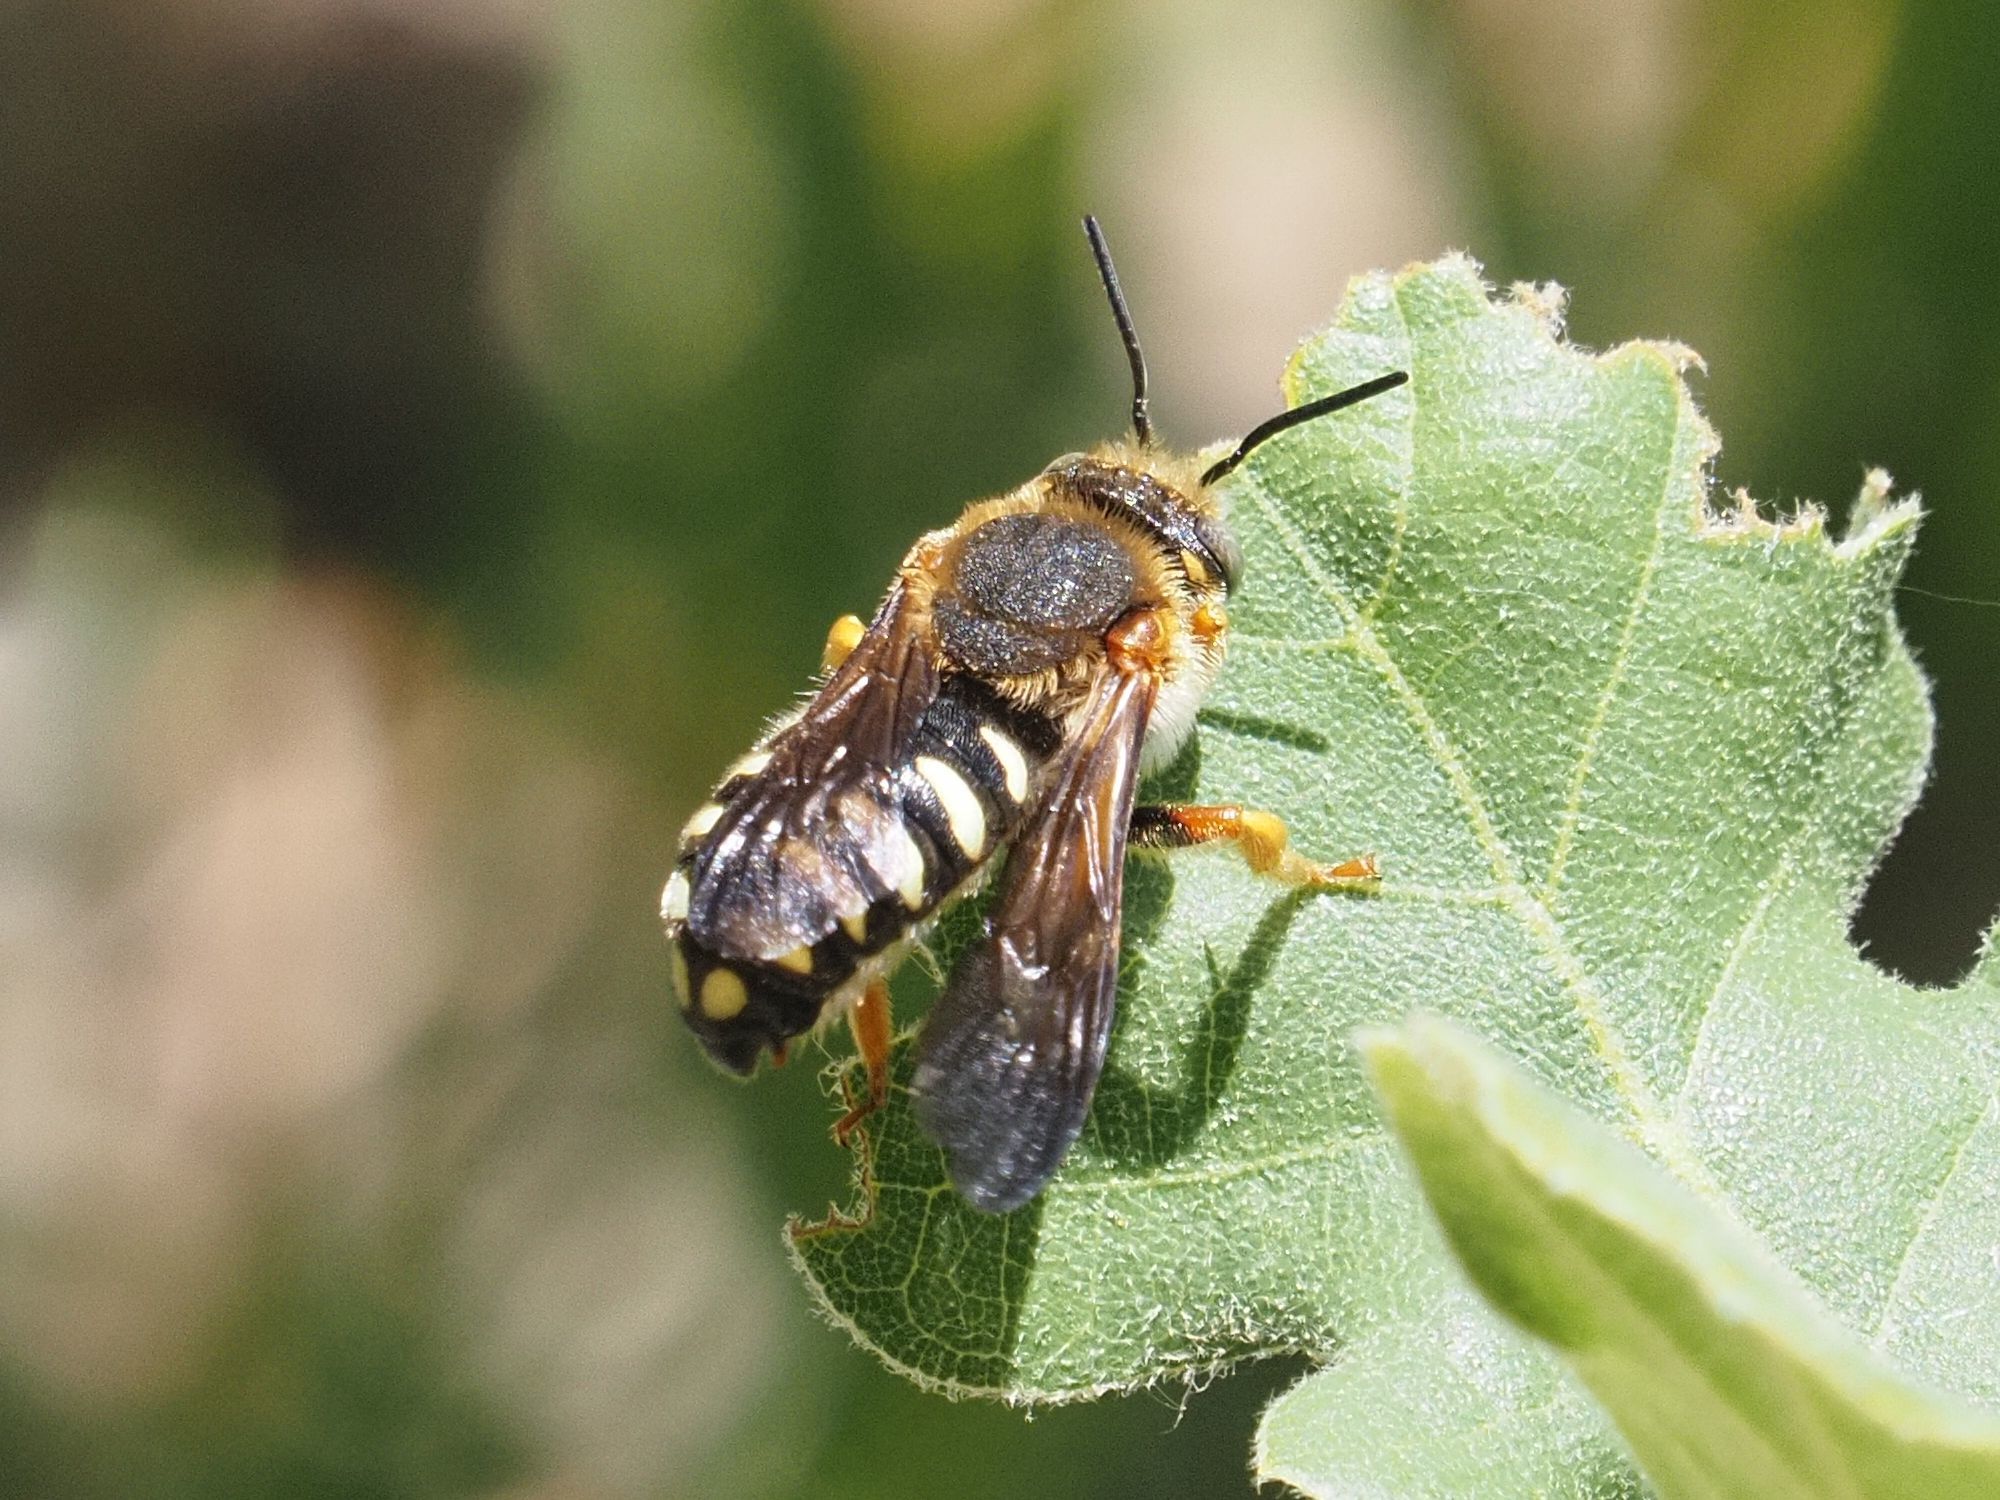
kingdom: Animalia
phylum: Arthropoda
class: Insecta
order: Hymenoptera
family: Megachilidae
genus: Rhodanthidium
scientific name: Rhodanthidium septemdentatum
